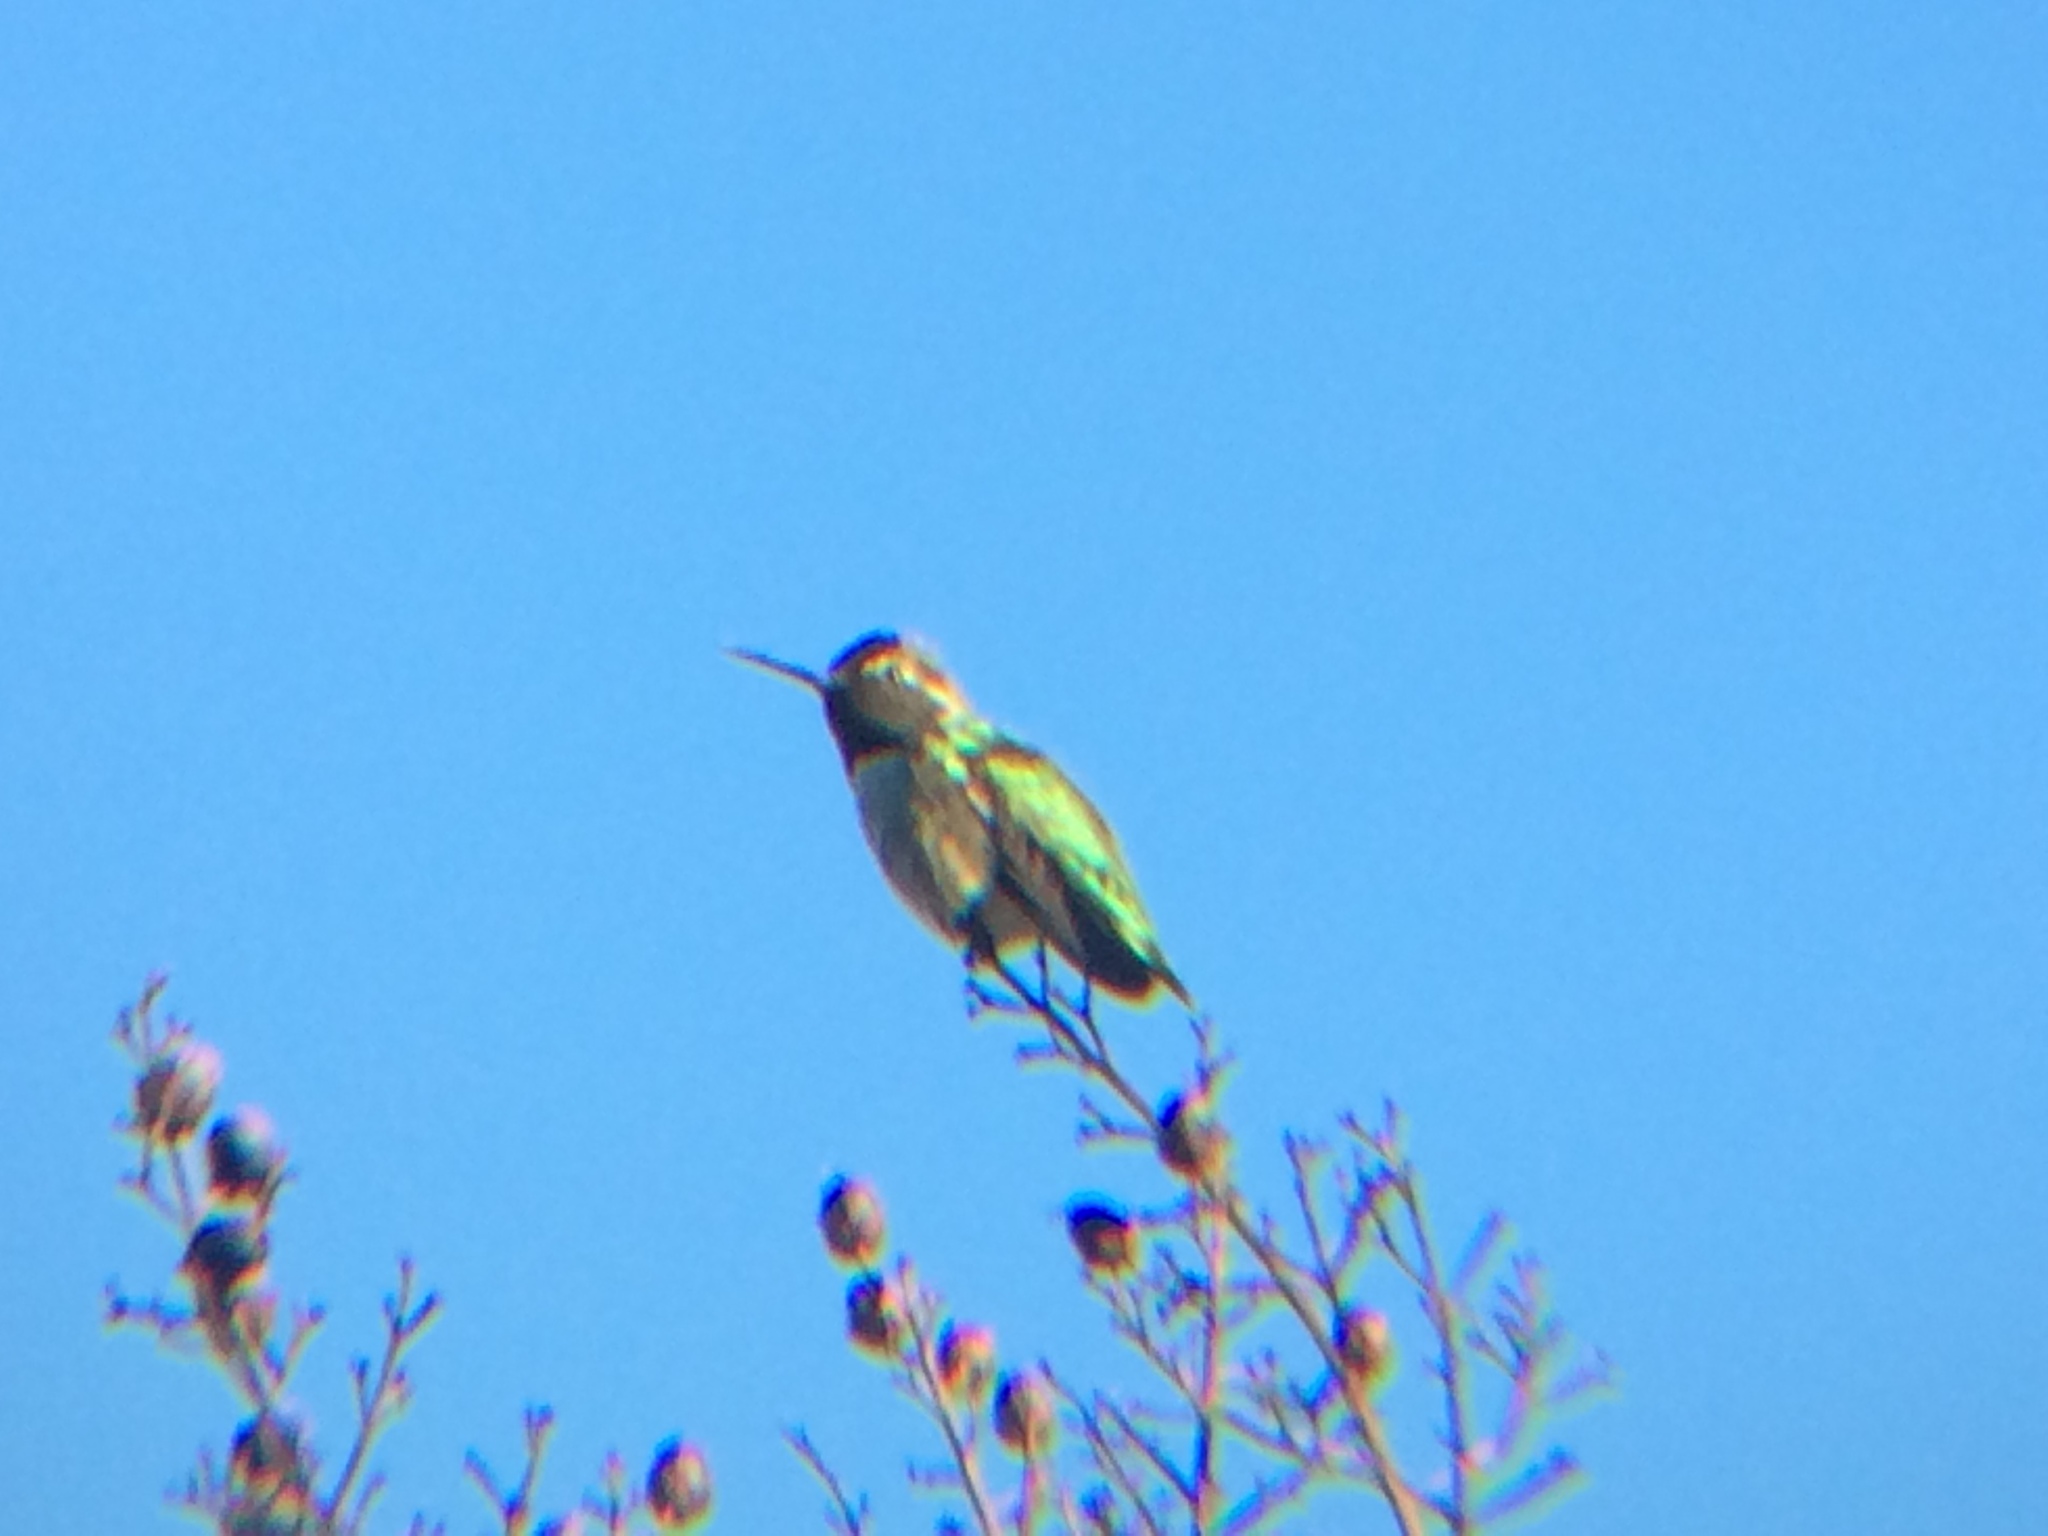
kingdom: Animalia
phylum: Chordata
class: Aves
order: Apodiformes
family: Trochilidae
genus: Calypte
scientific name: Calypte anna
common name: Anna's hummingbird
